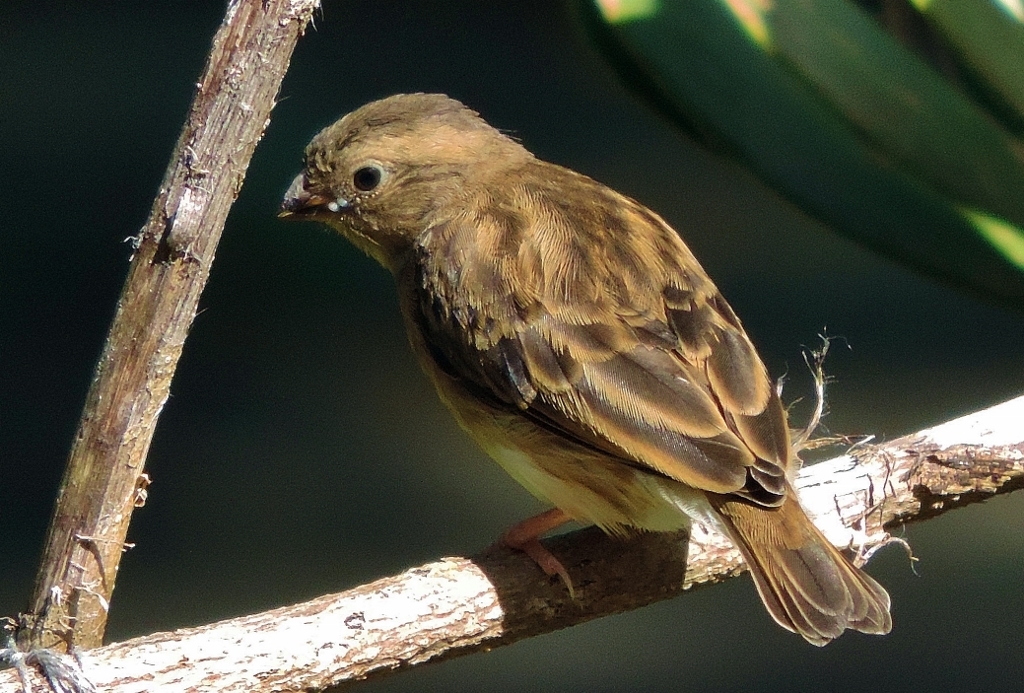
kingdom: Animalia
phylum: Chordata
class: Aves
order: Passeriformes
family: Viduidae
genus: Vidua
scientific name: Vidua chalybeata
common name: Village indigobird
